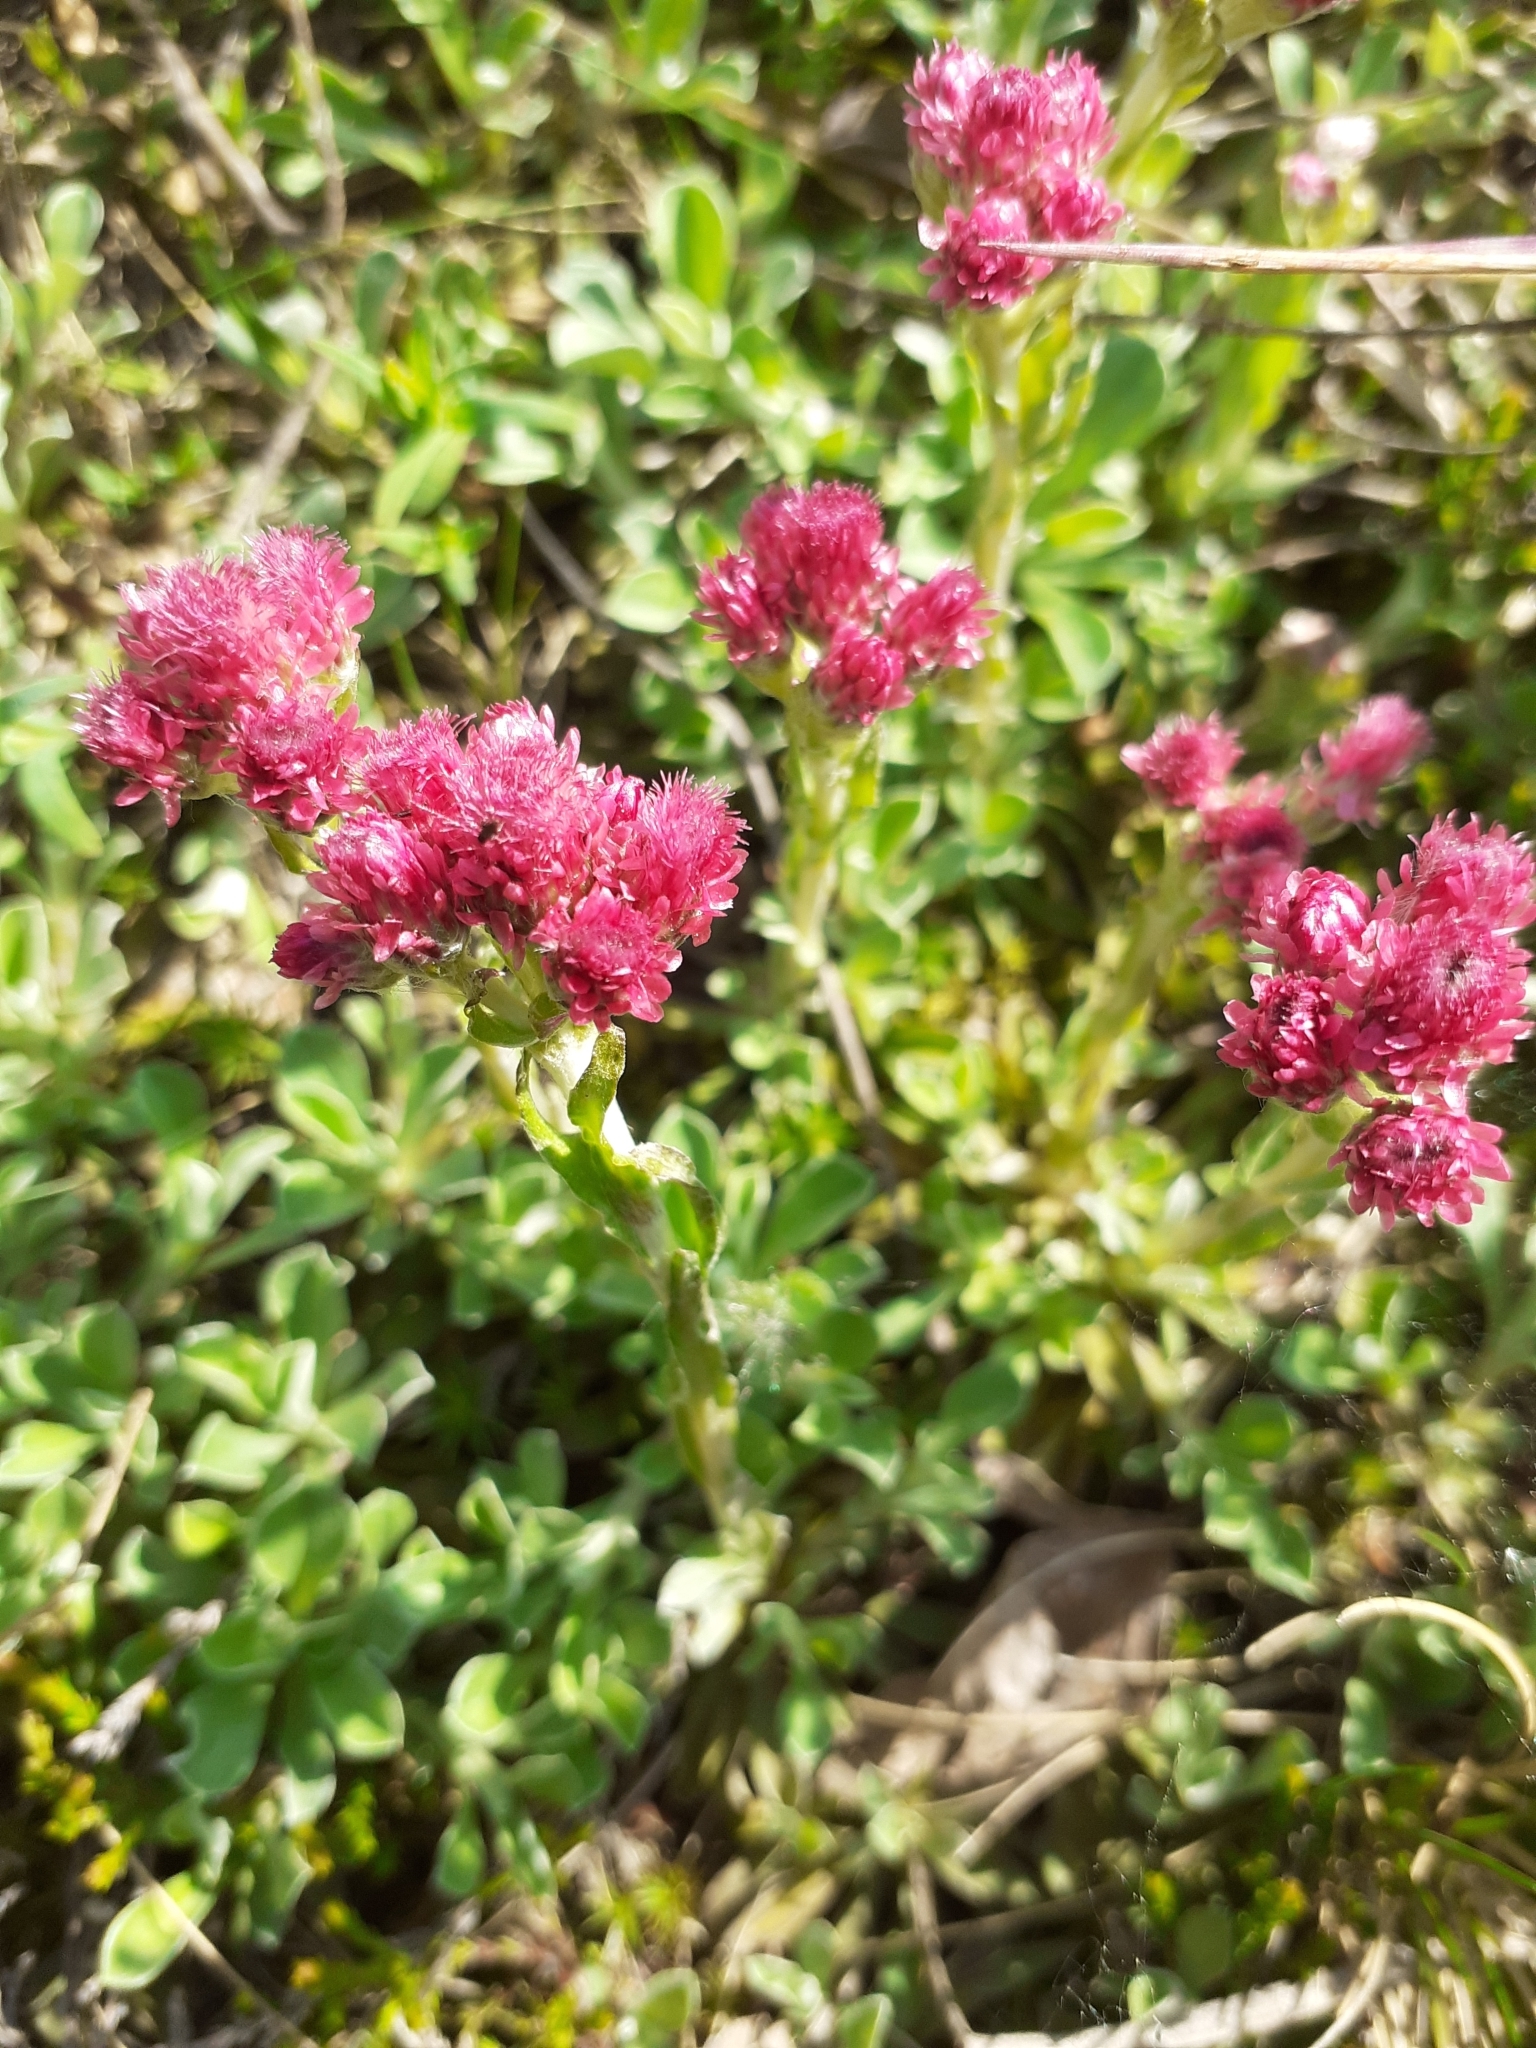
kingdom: Plantae
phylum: Tracheophyta
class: Magnoliopsida
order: Asterales
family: Asteraceae
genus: Antennaria
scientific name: Antennaria dioica
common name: Mountain everlasting
